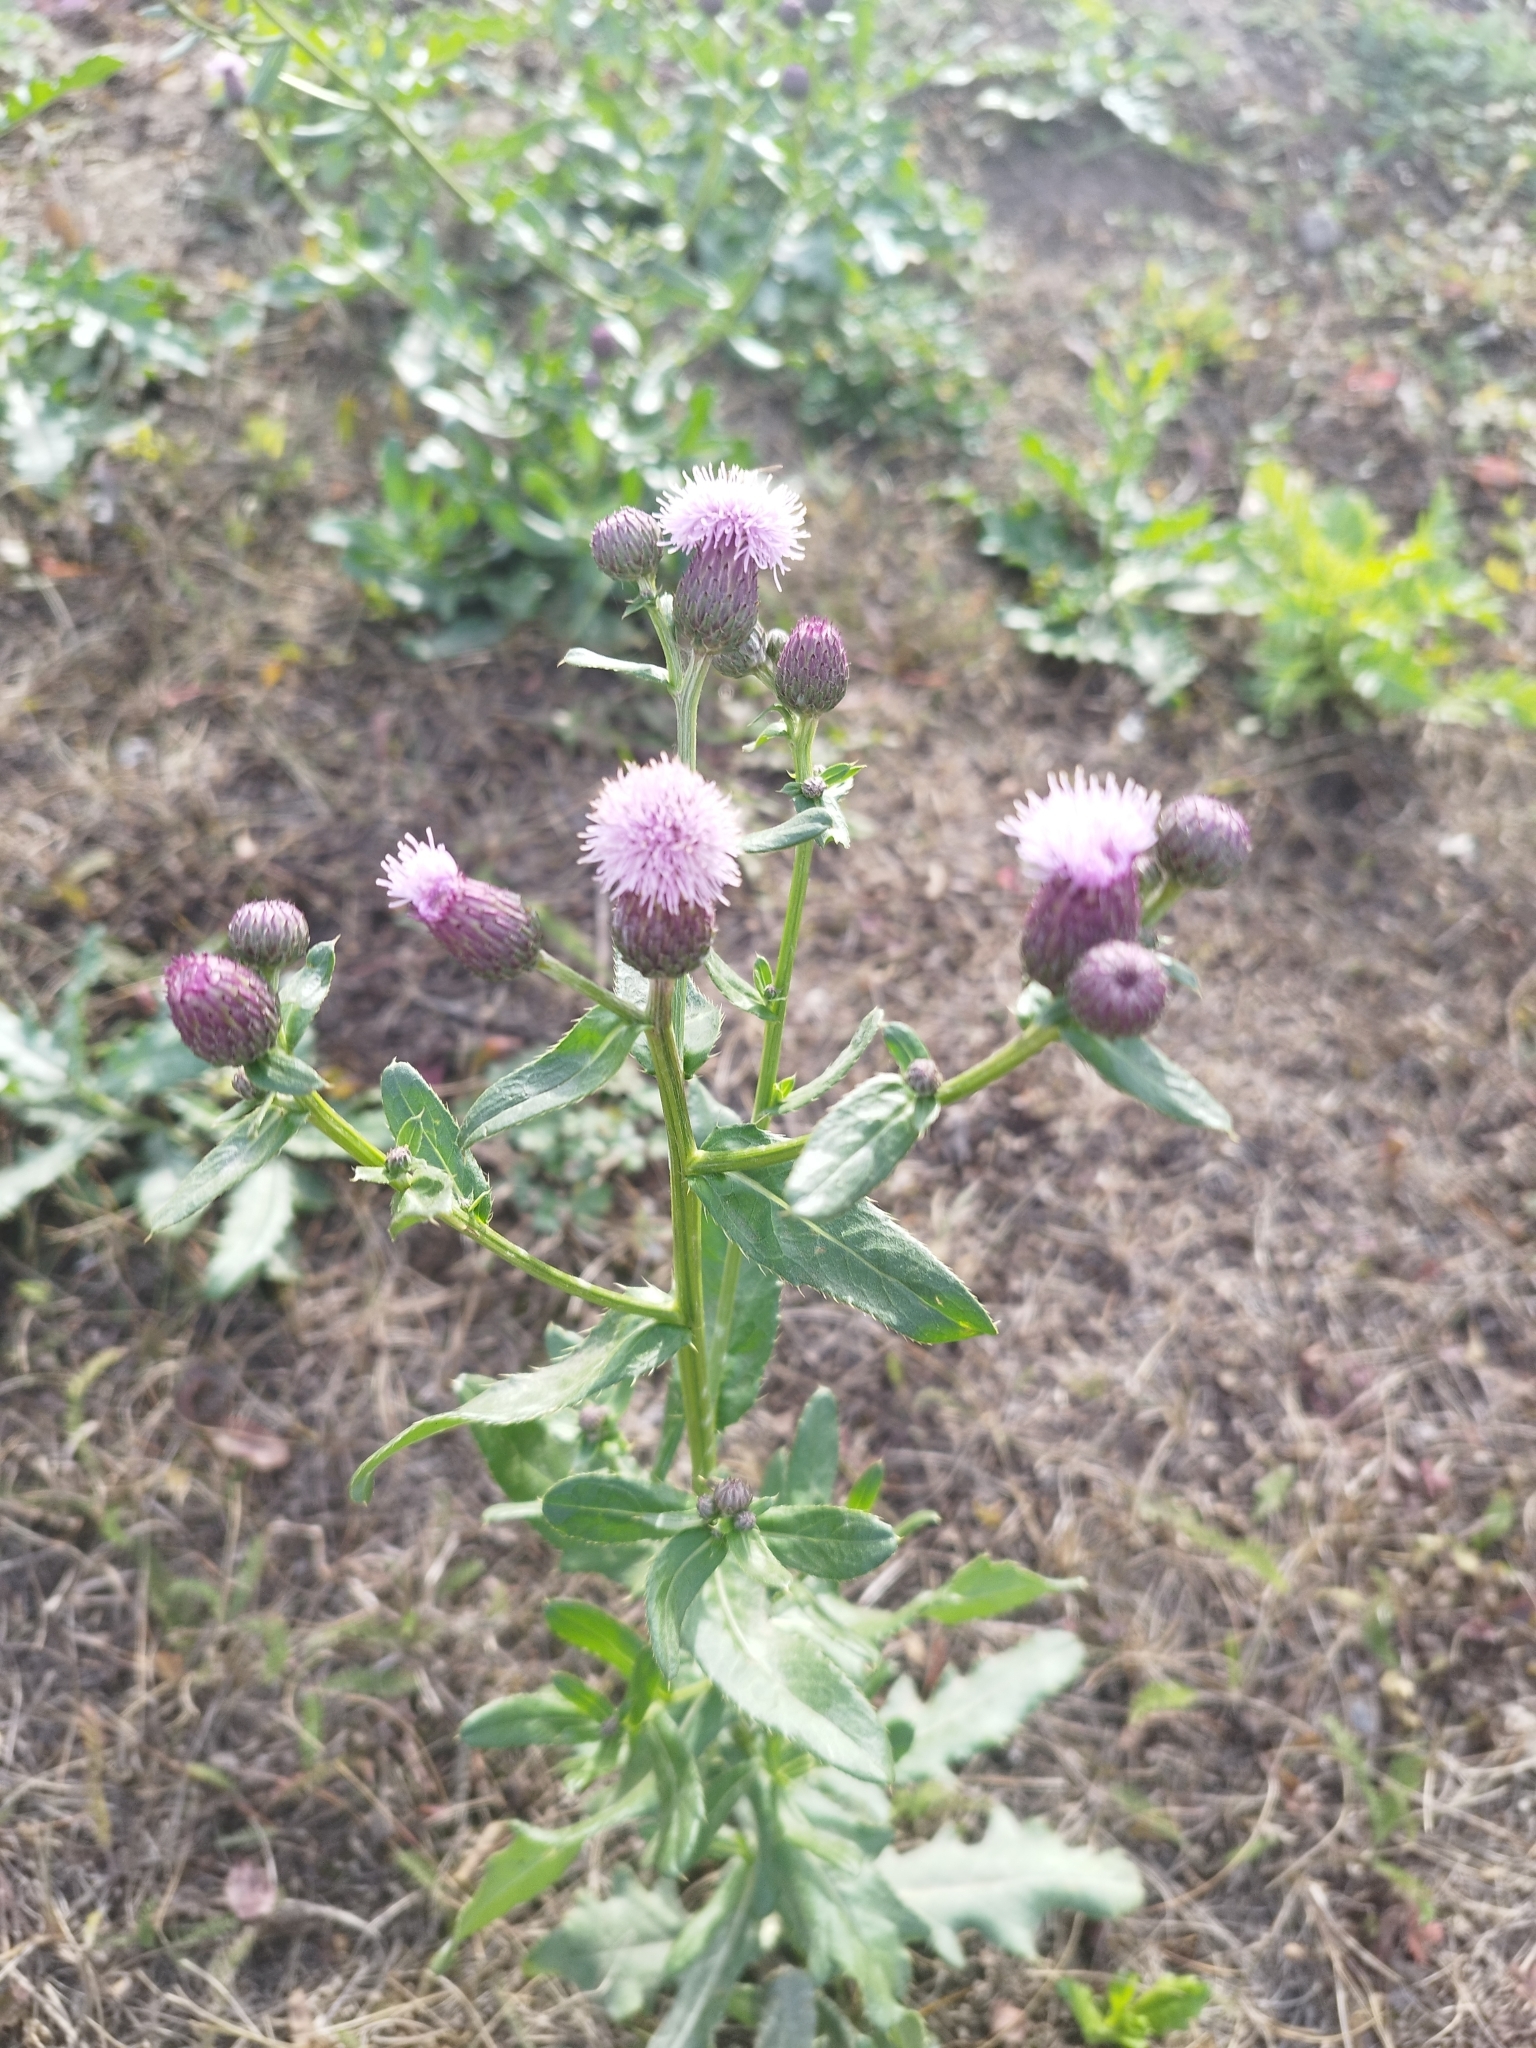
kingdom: Plantae
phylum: Tracheophyta
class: Magnoliopsida
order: Asterales
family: Asteraceae
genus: Cirsium
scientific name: Cirsium arvense
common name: Creeping thistle
